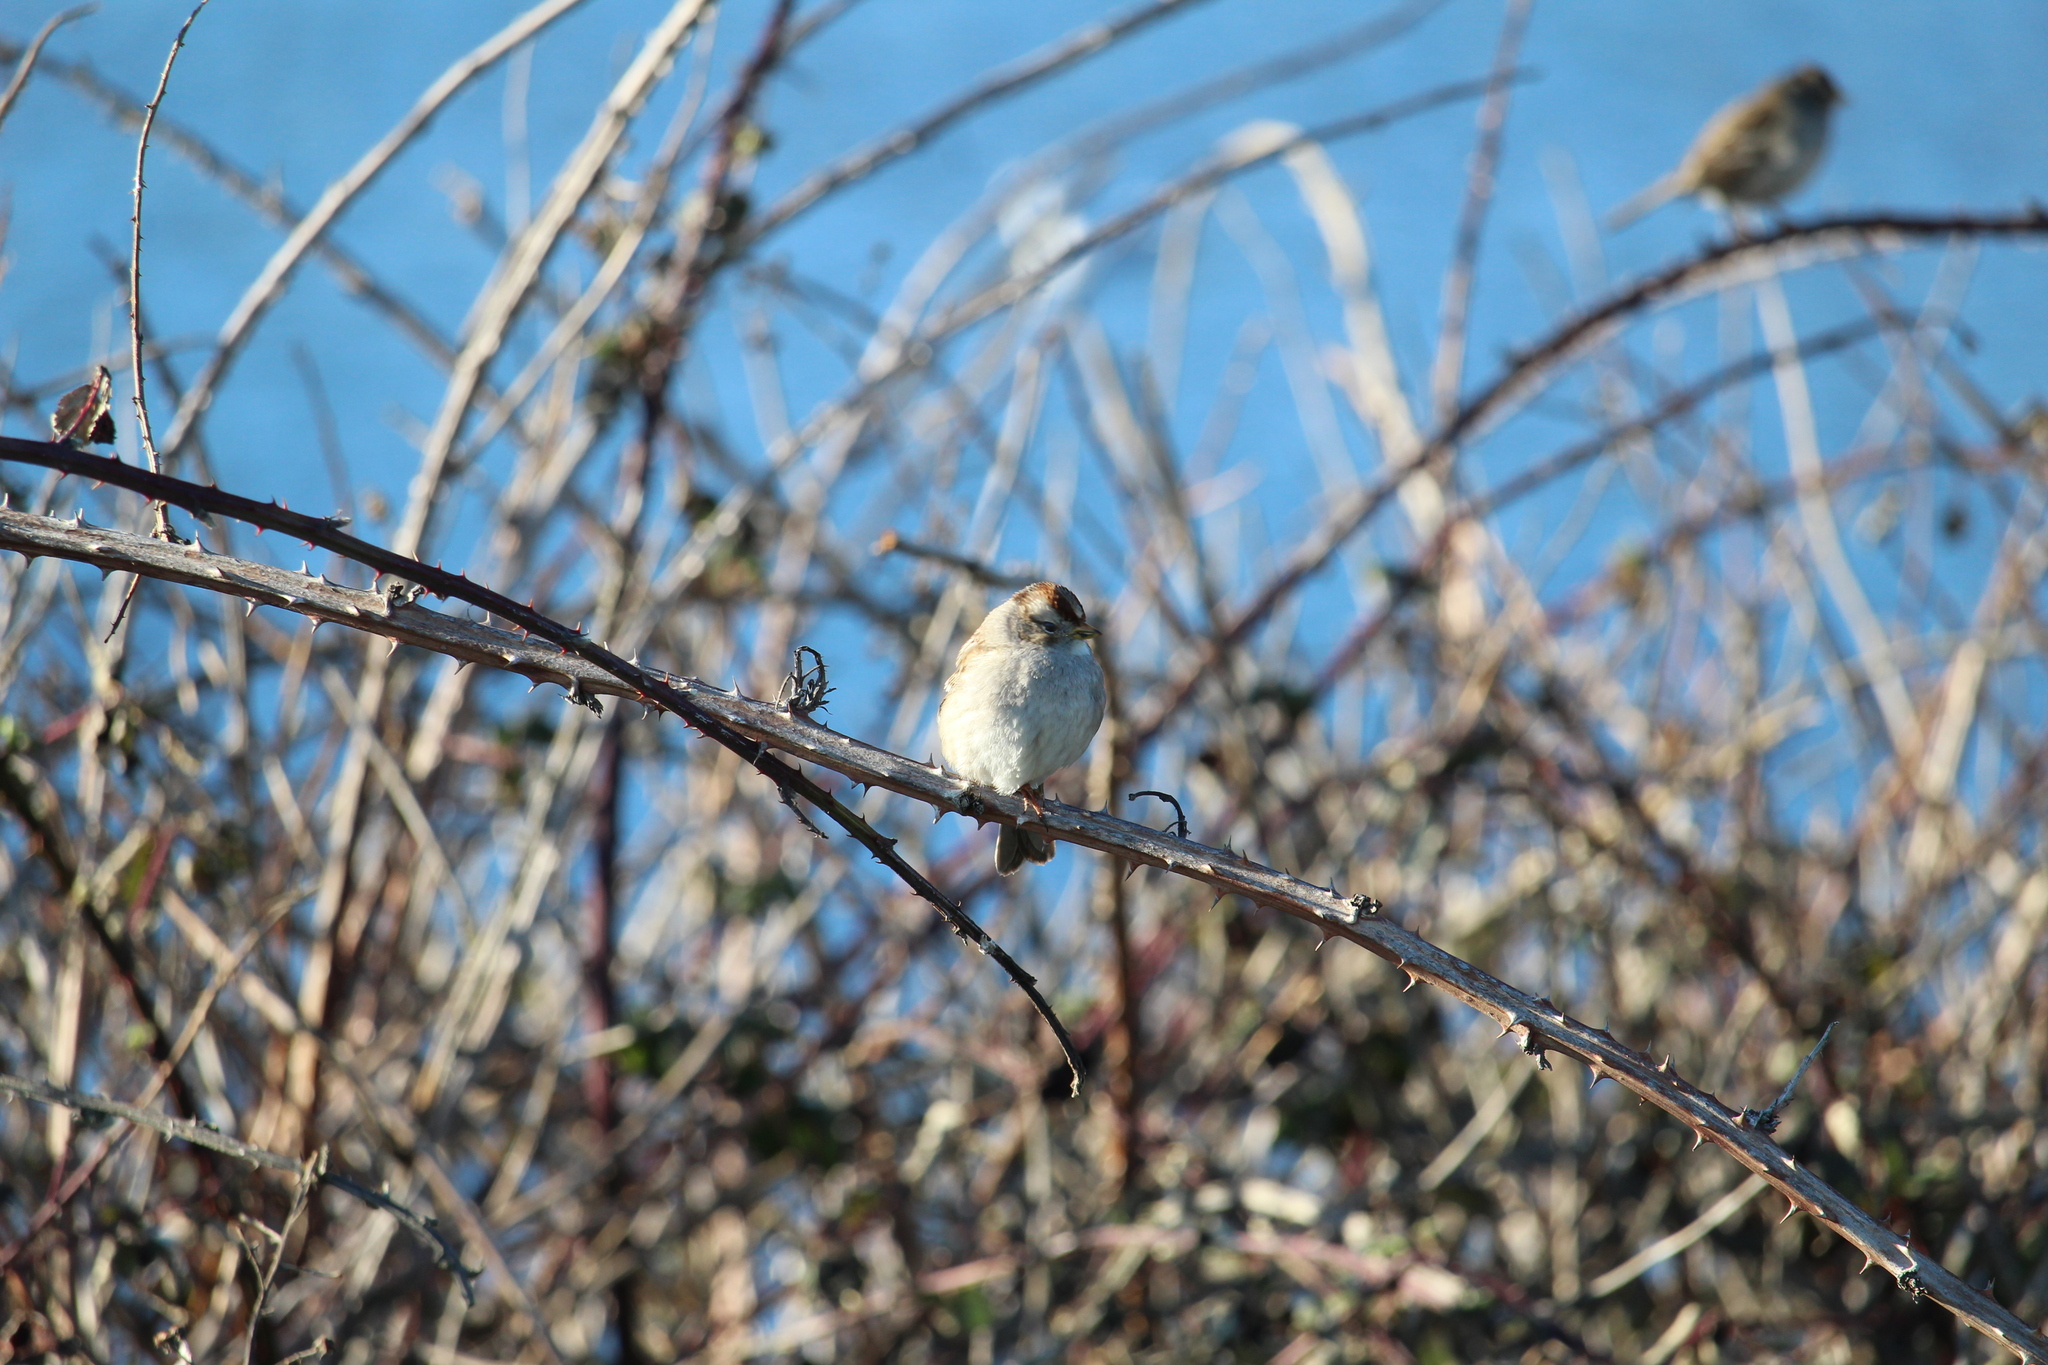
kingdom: Animalia
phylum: Chordata
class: Aves
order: Passeriformes
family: Passerellidae
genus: Zonotrichia
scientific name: Zonotrichia leucophrys
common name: White-crowned sparrow
